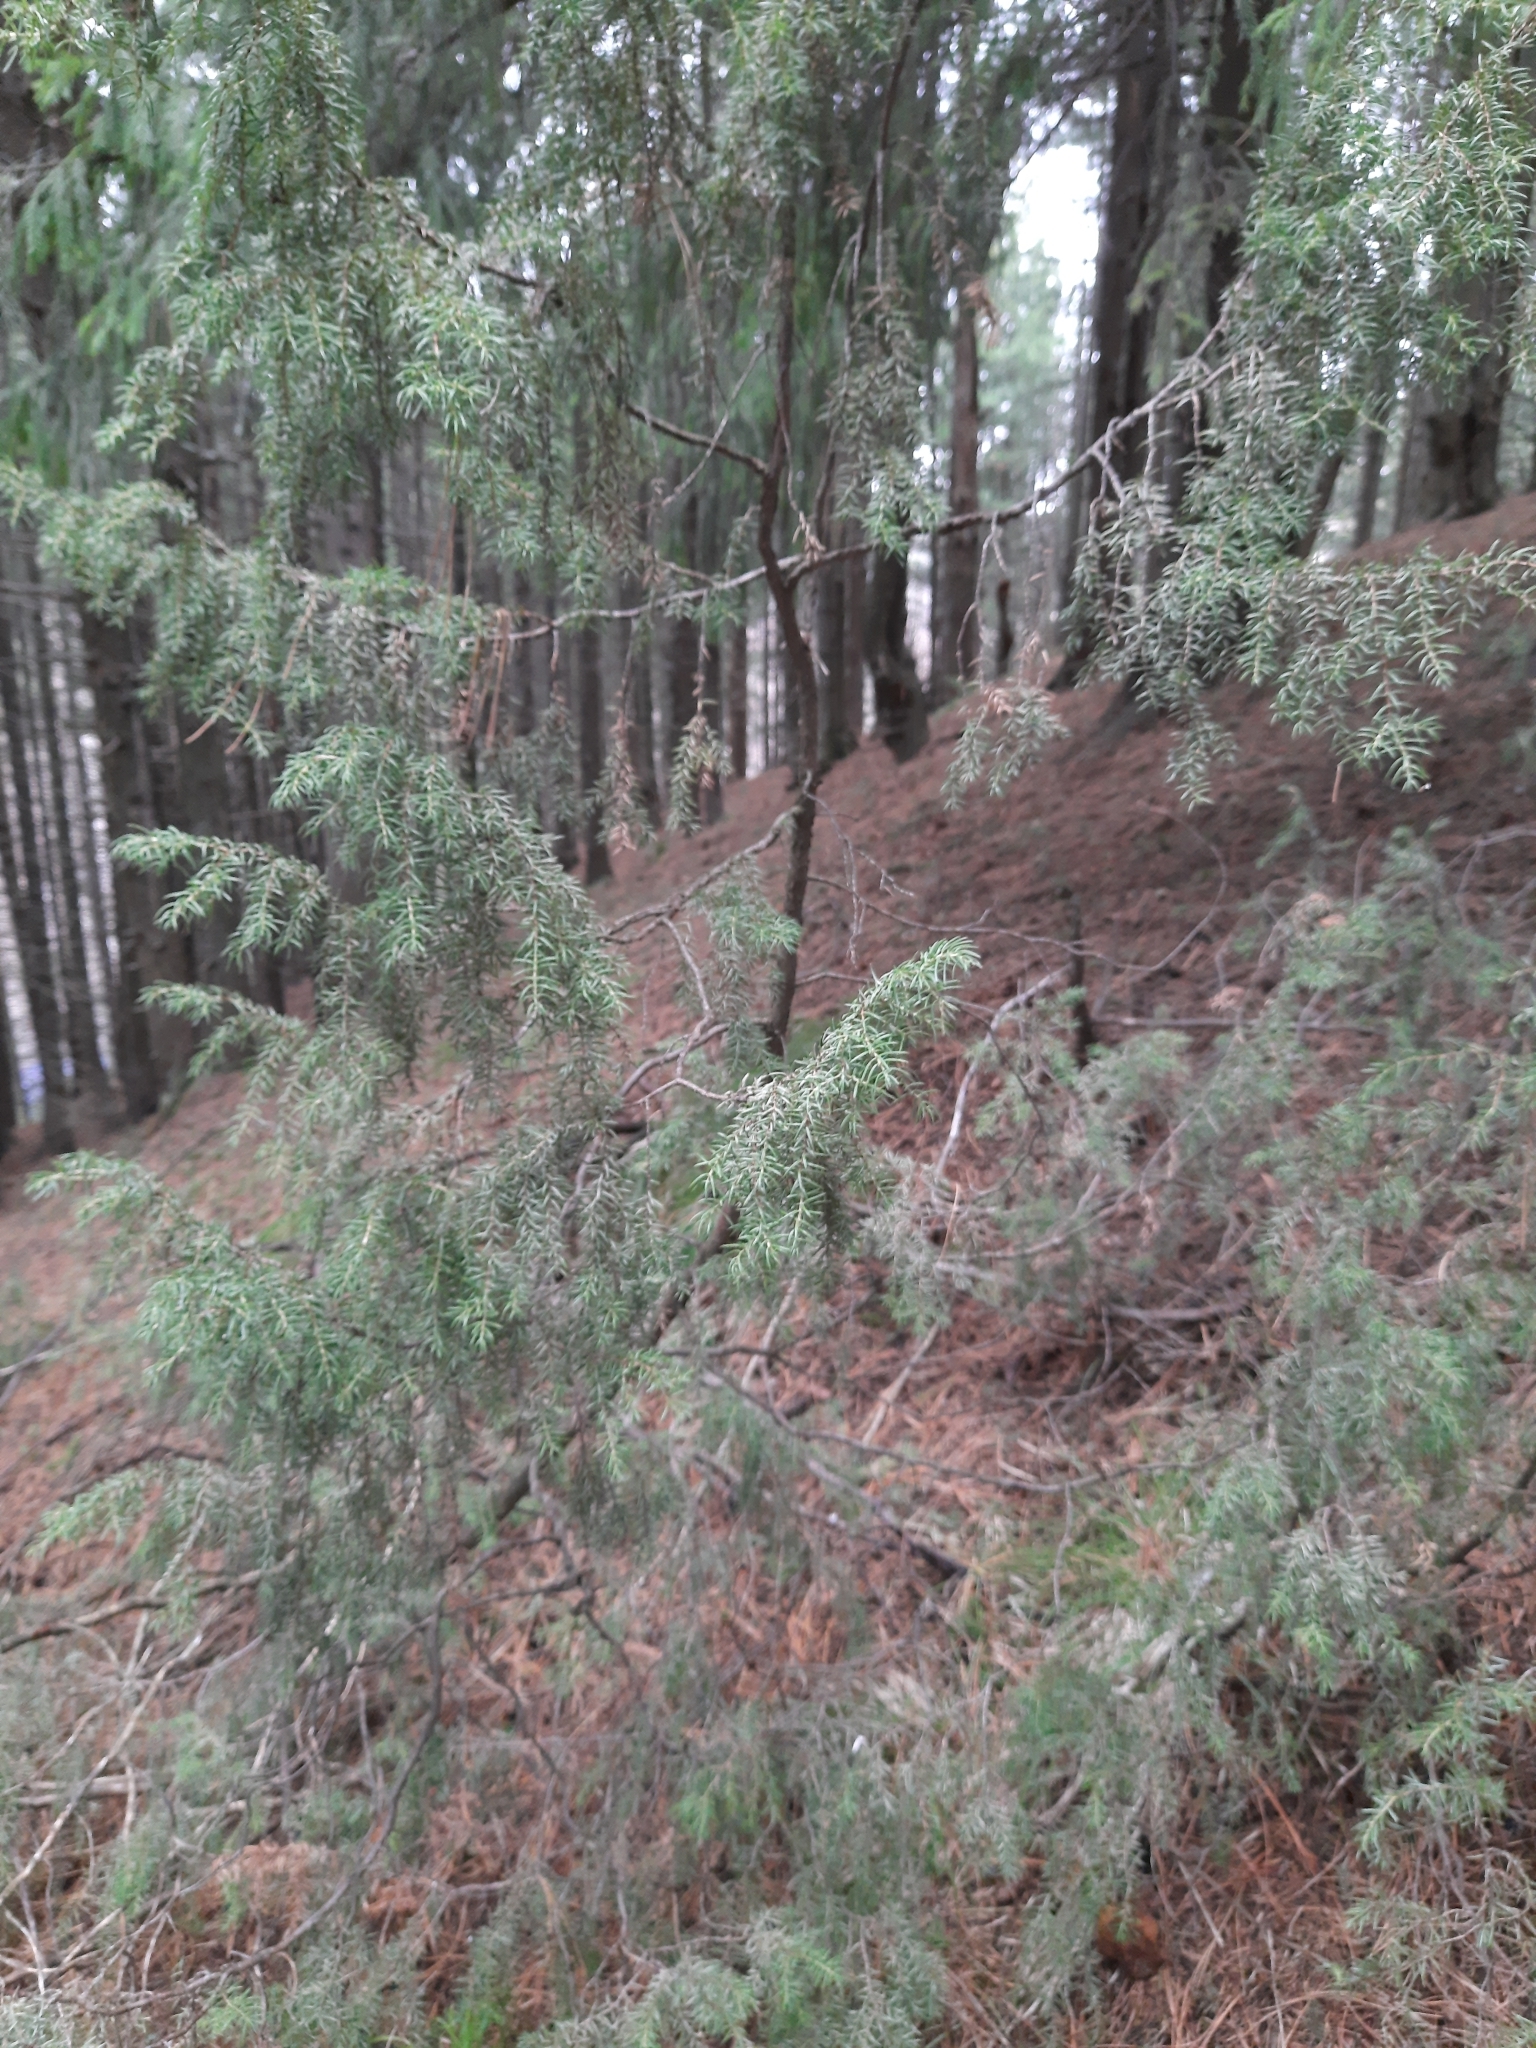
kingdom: Plantae
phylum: Tracheophyta
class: Pinopsida
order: Pinales
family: Cupressaceae
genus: Juniperus
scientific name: Juniperus communis
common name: Common juniper
